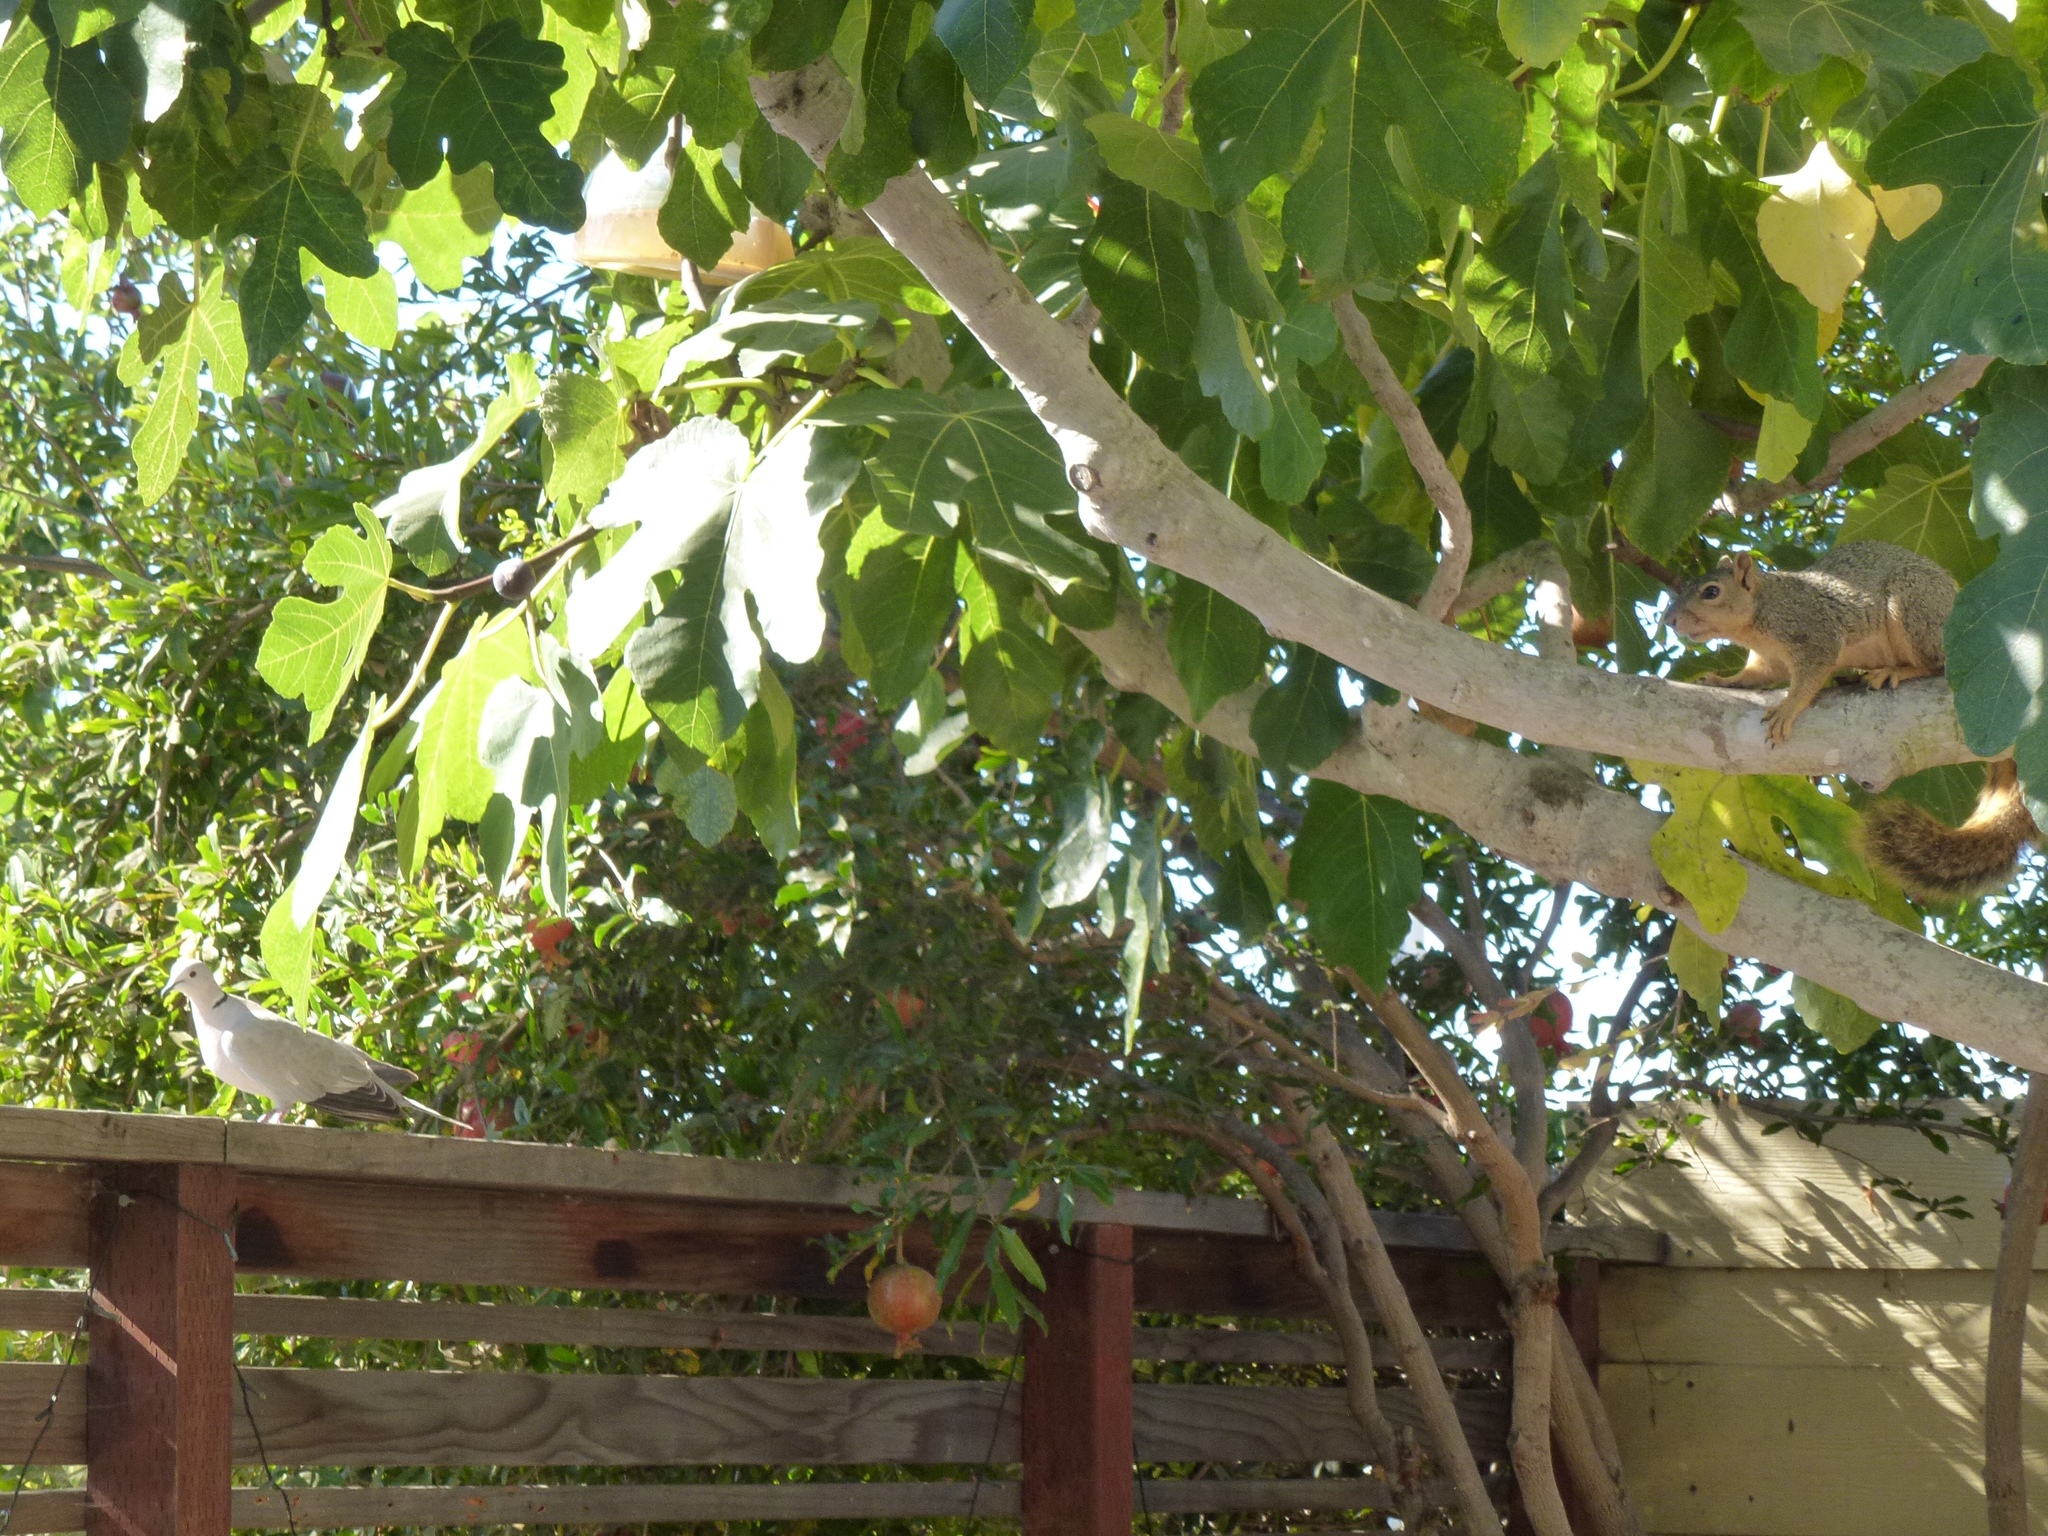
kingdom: Animalia
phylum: Chordata
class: Mammalia
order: Rodentia
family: Sciuridae
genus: Sciurus
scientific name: Sciurus niger
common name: Fox squirrel
